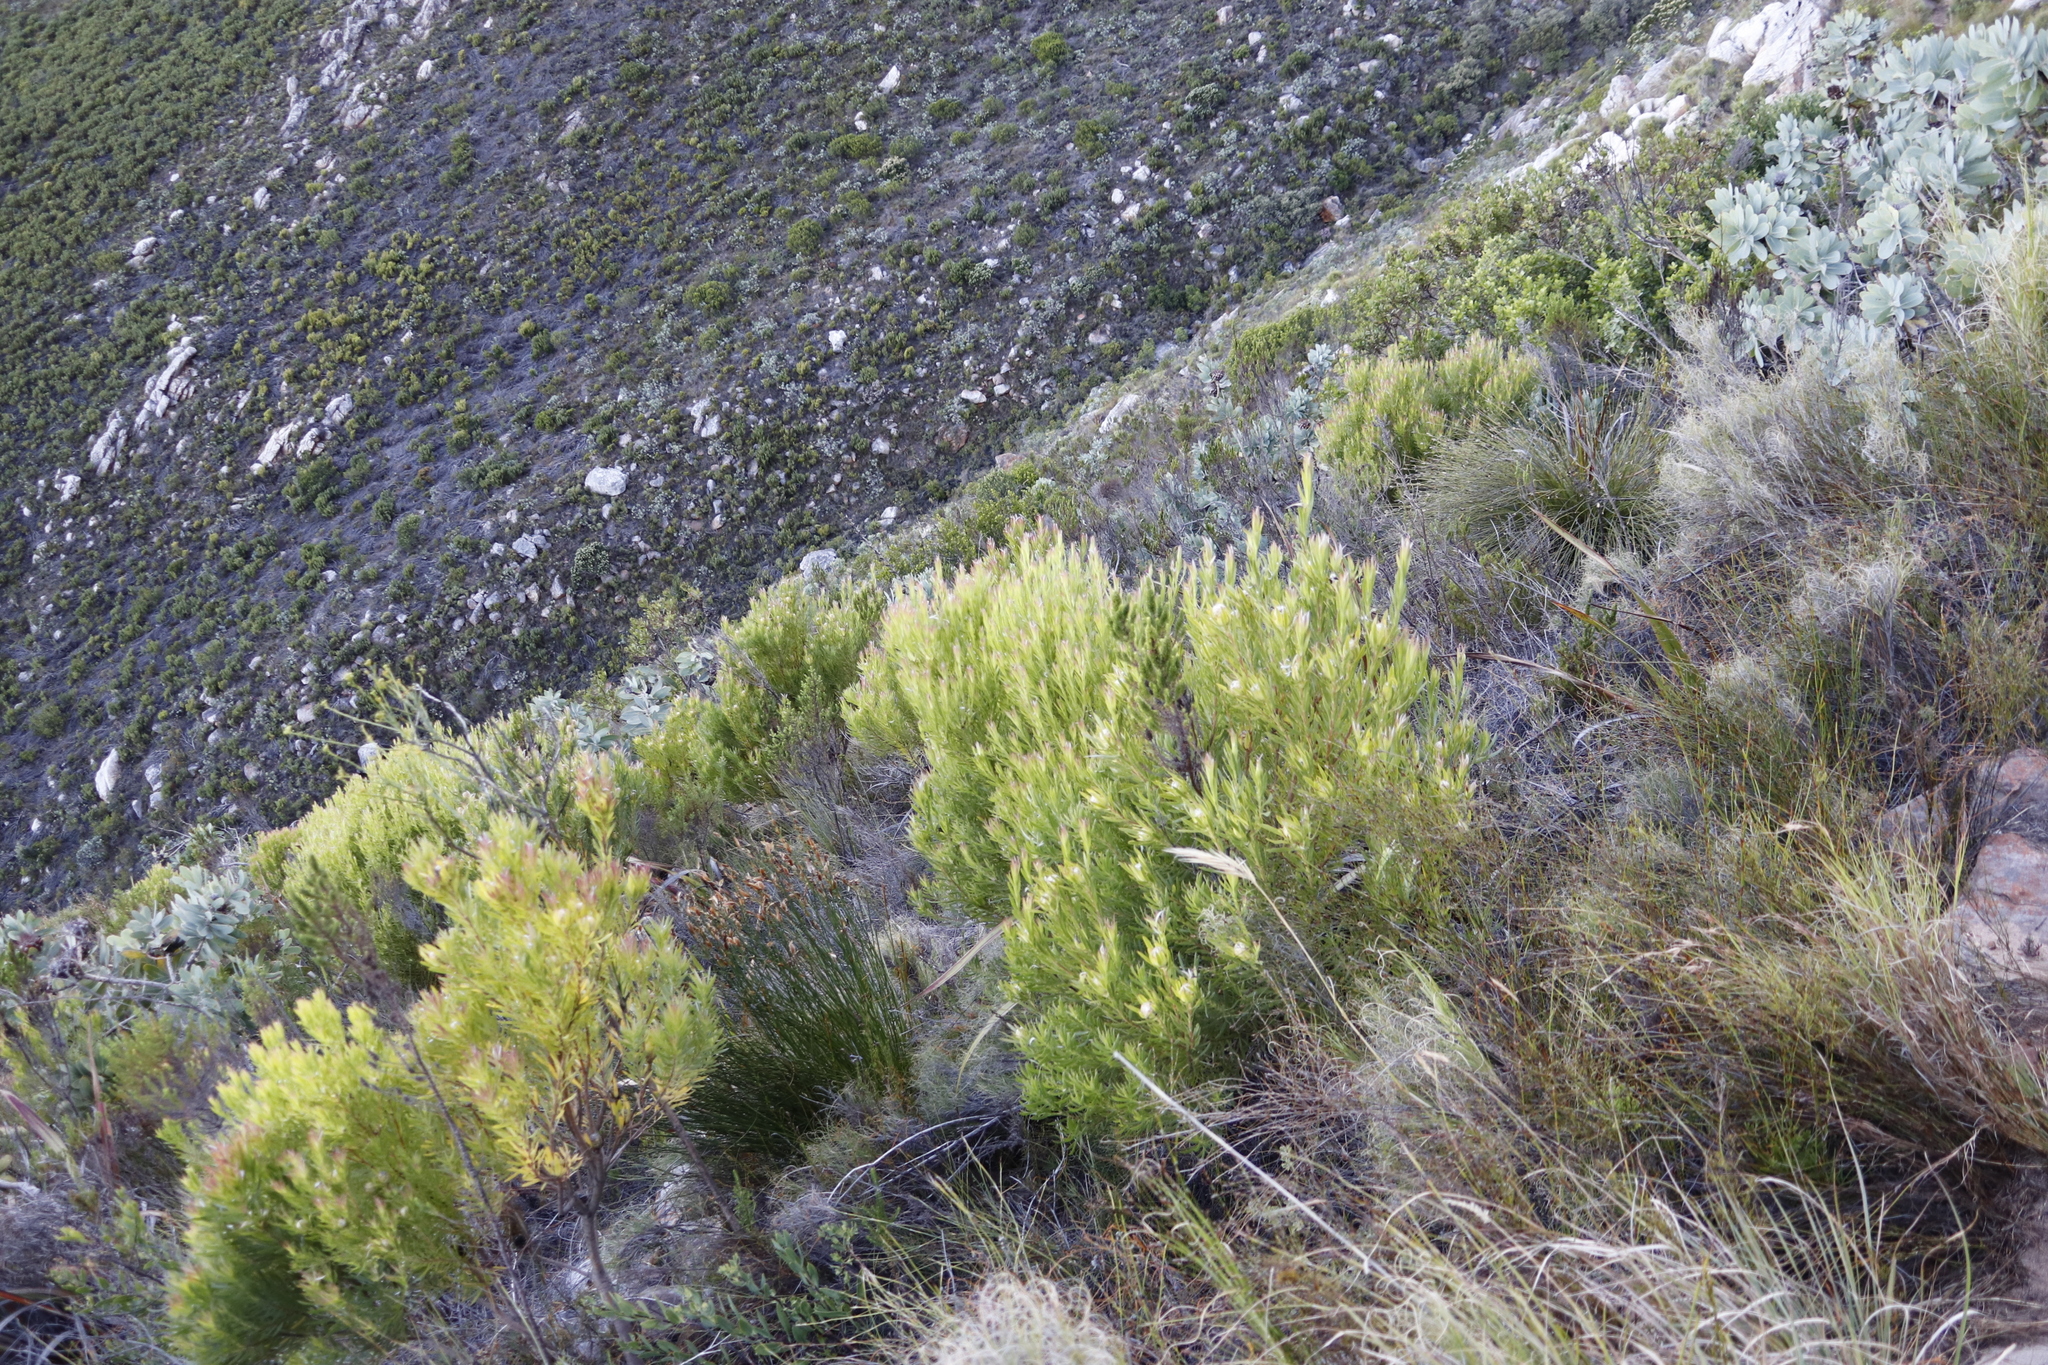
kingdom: Plantae
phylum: Tracheophyta
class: Magnoliopsida
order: Proteales
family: Proteaceae
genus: Leucadendron
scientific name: Leucadendron xanthoconus
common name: Sickle-leaf conebush
